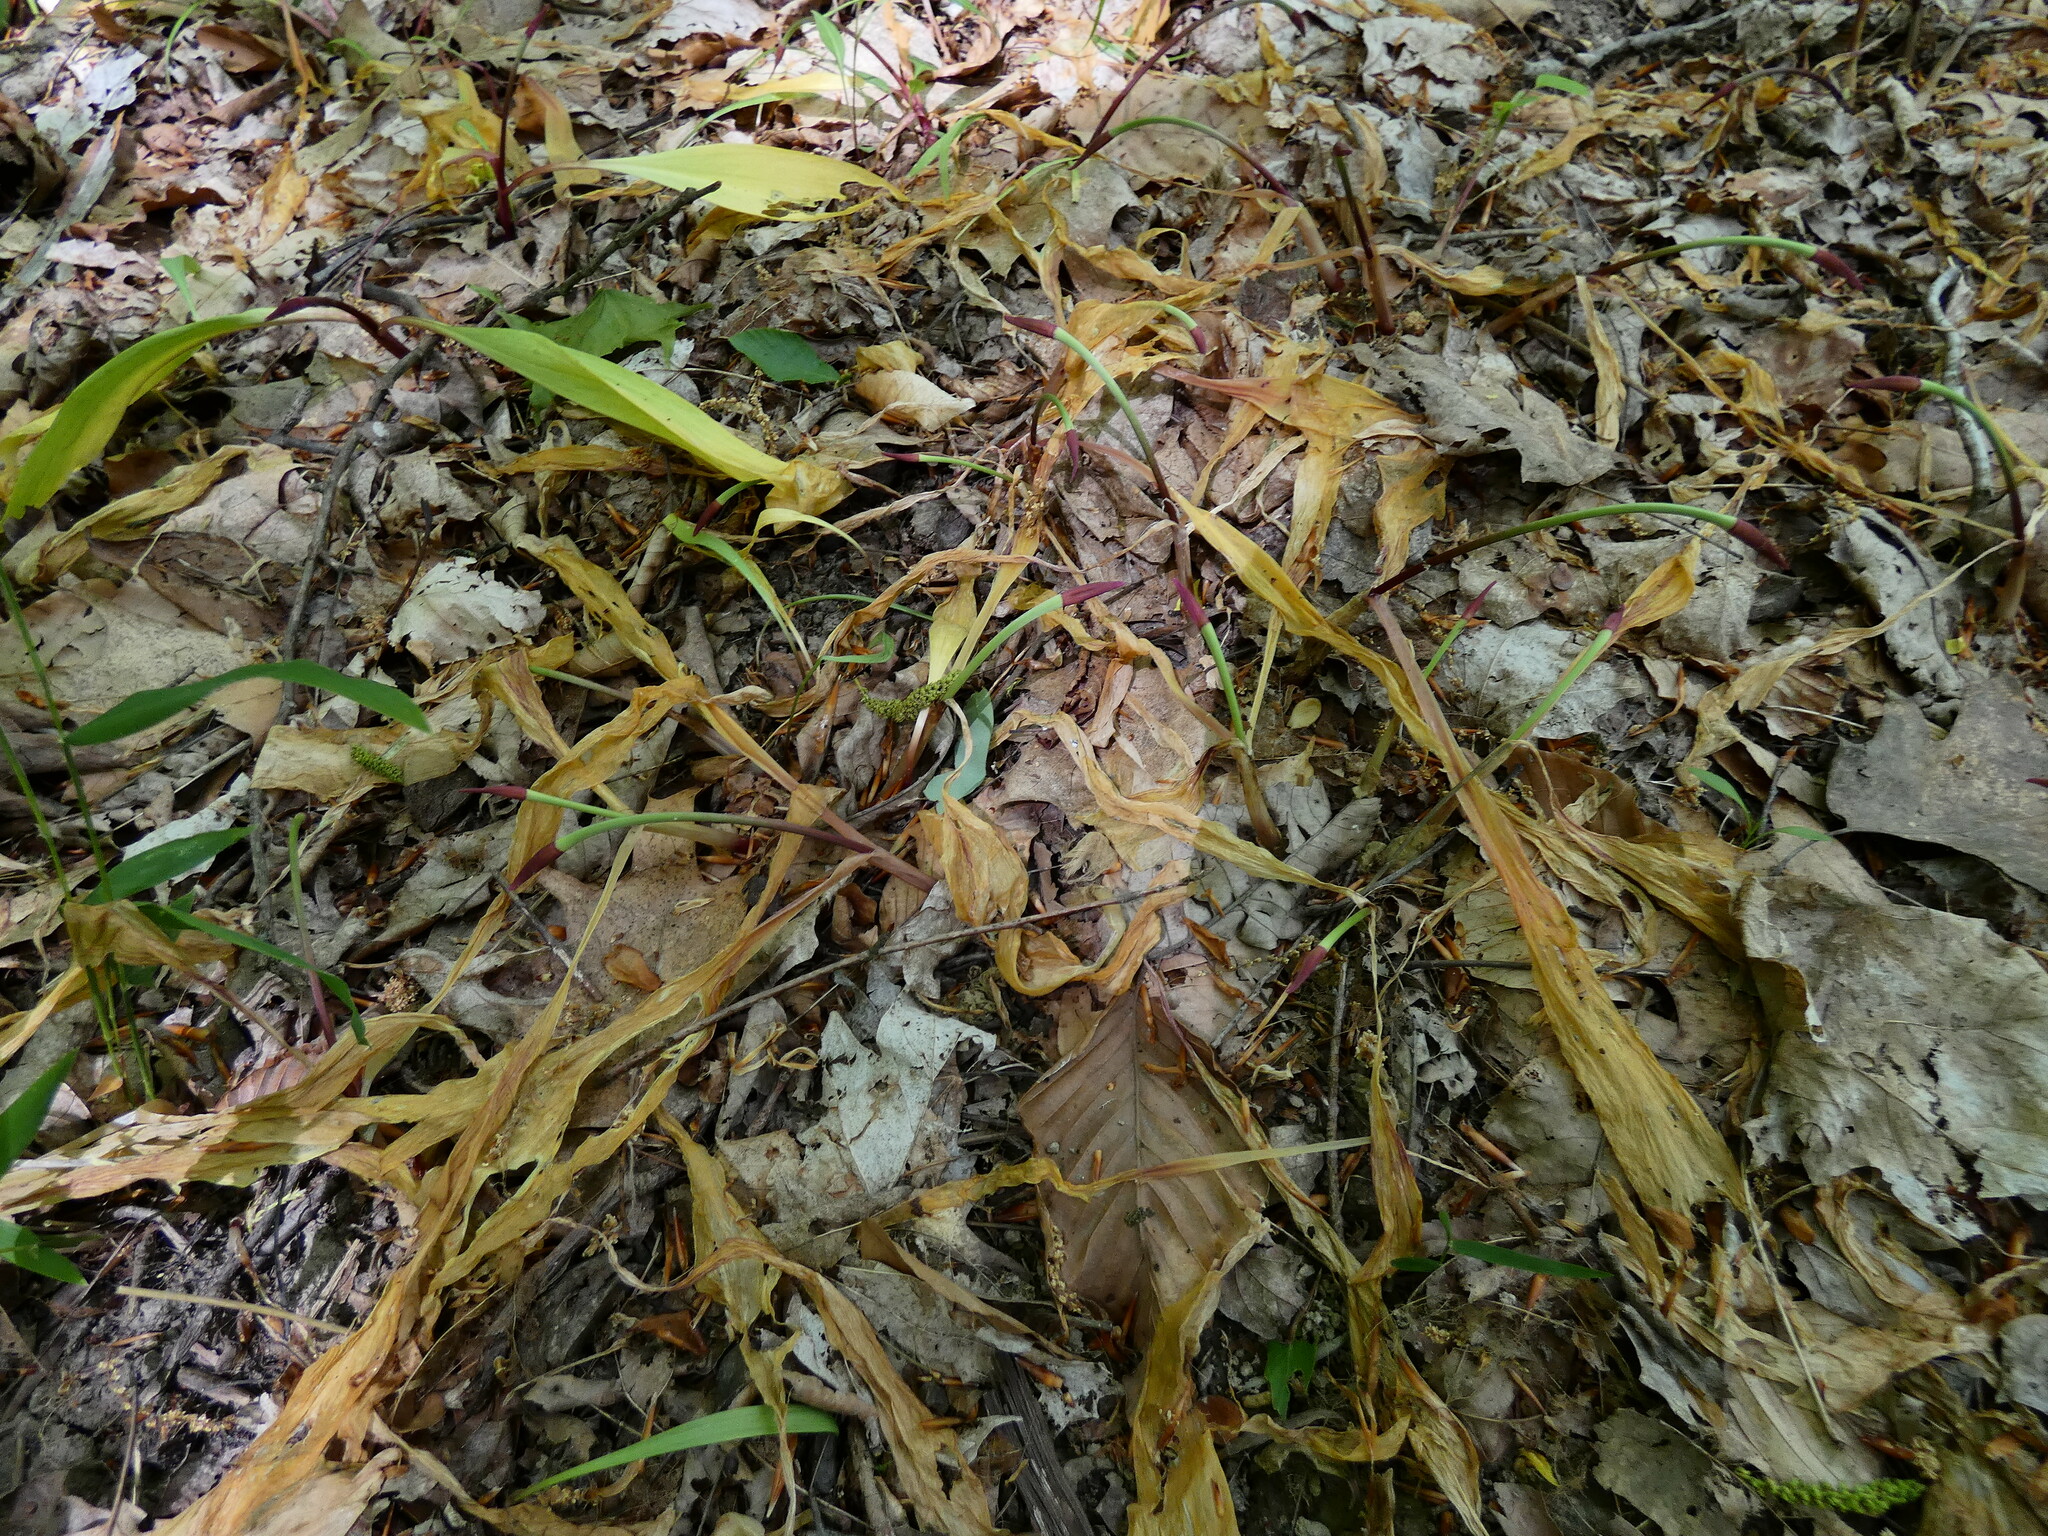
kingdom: Plantae
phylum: Tracheophyta
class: Liliopsida
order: Asparagales
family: Amaryllidaceae
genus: Allium
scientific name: Allium tricoccum
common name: Ramp
